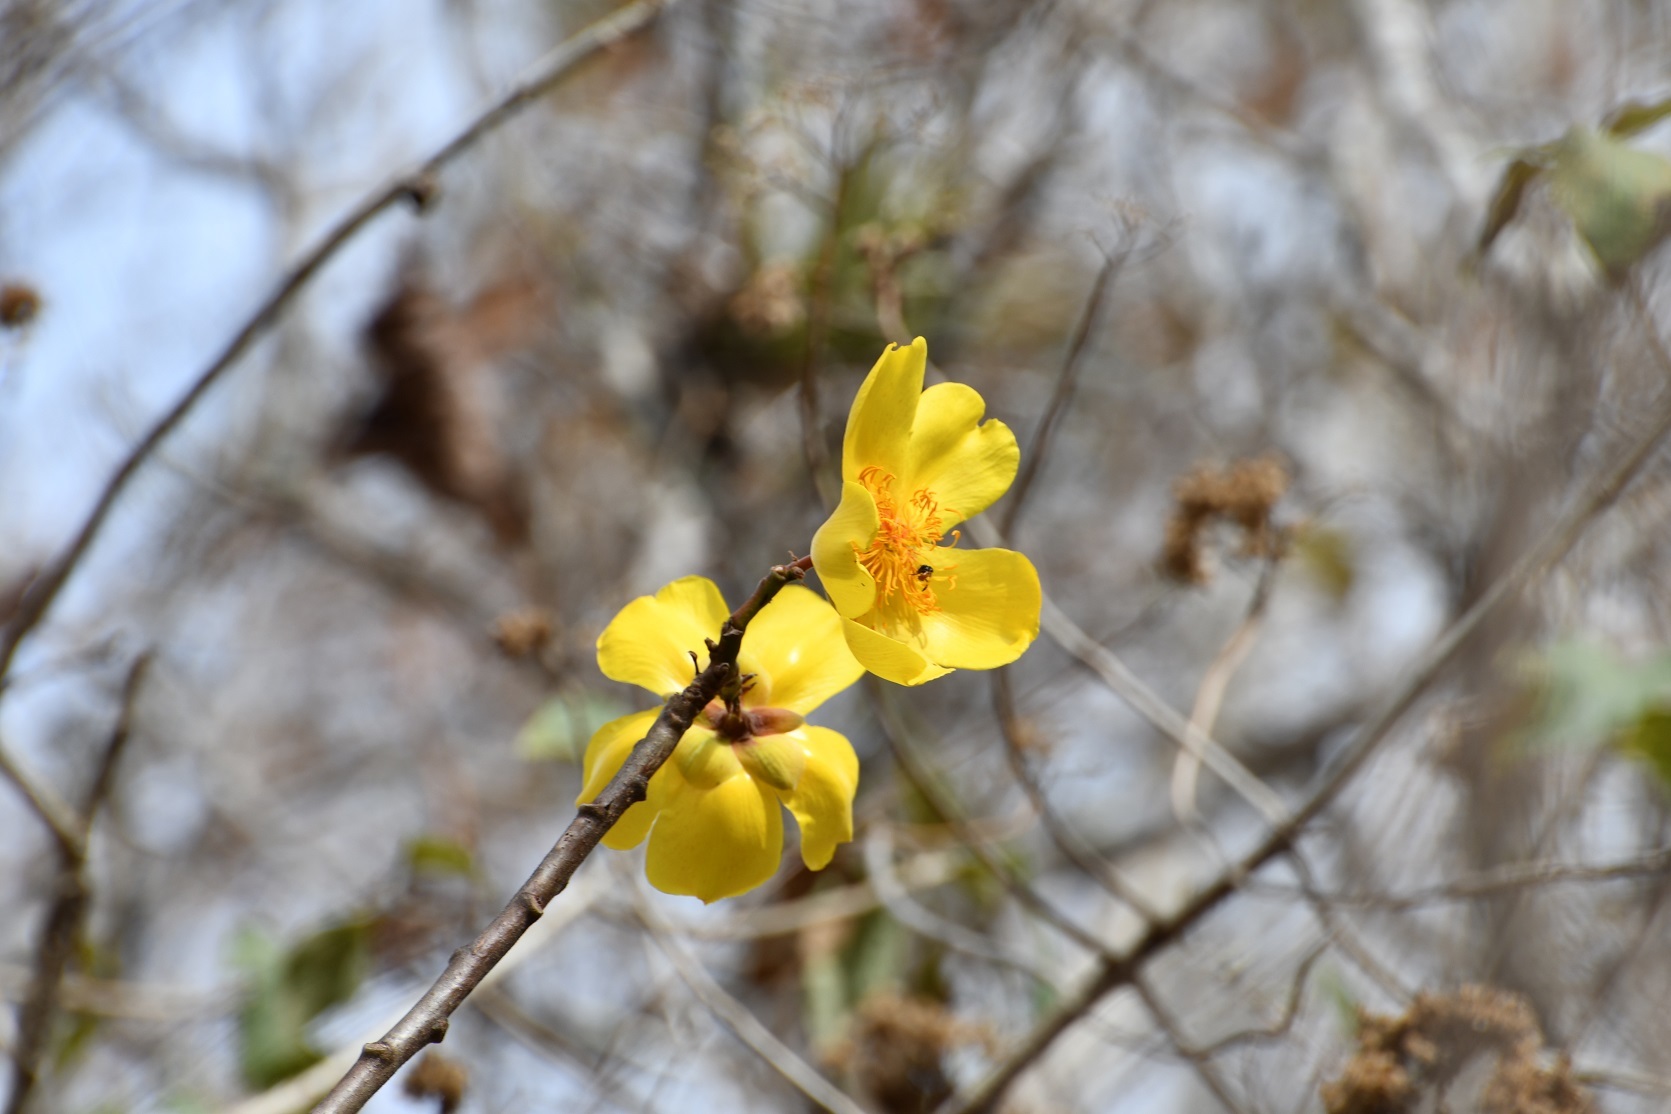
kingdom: Plantae
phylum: Tracheophyta
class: Magnoliopsida
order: Malvales
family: Cochlospermaceae
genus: Cochlospermum
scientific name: Cochlospermum vitifolium
